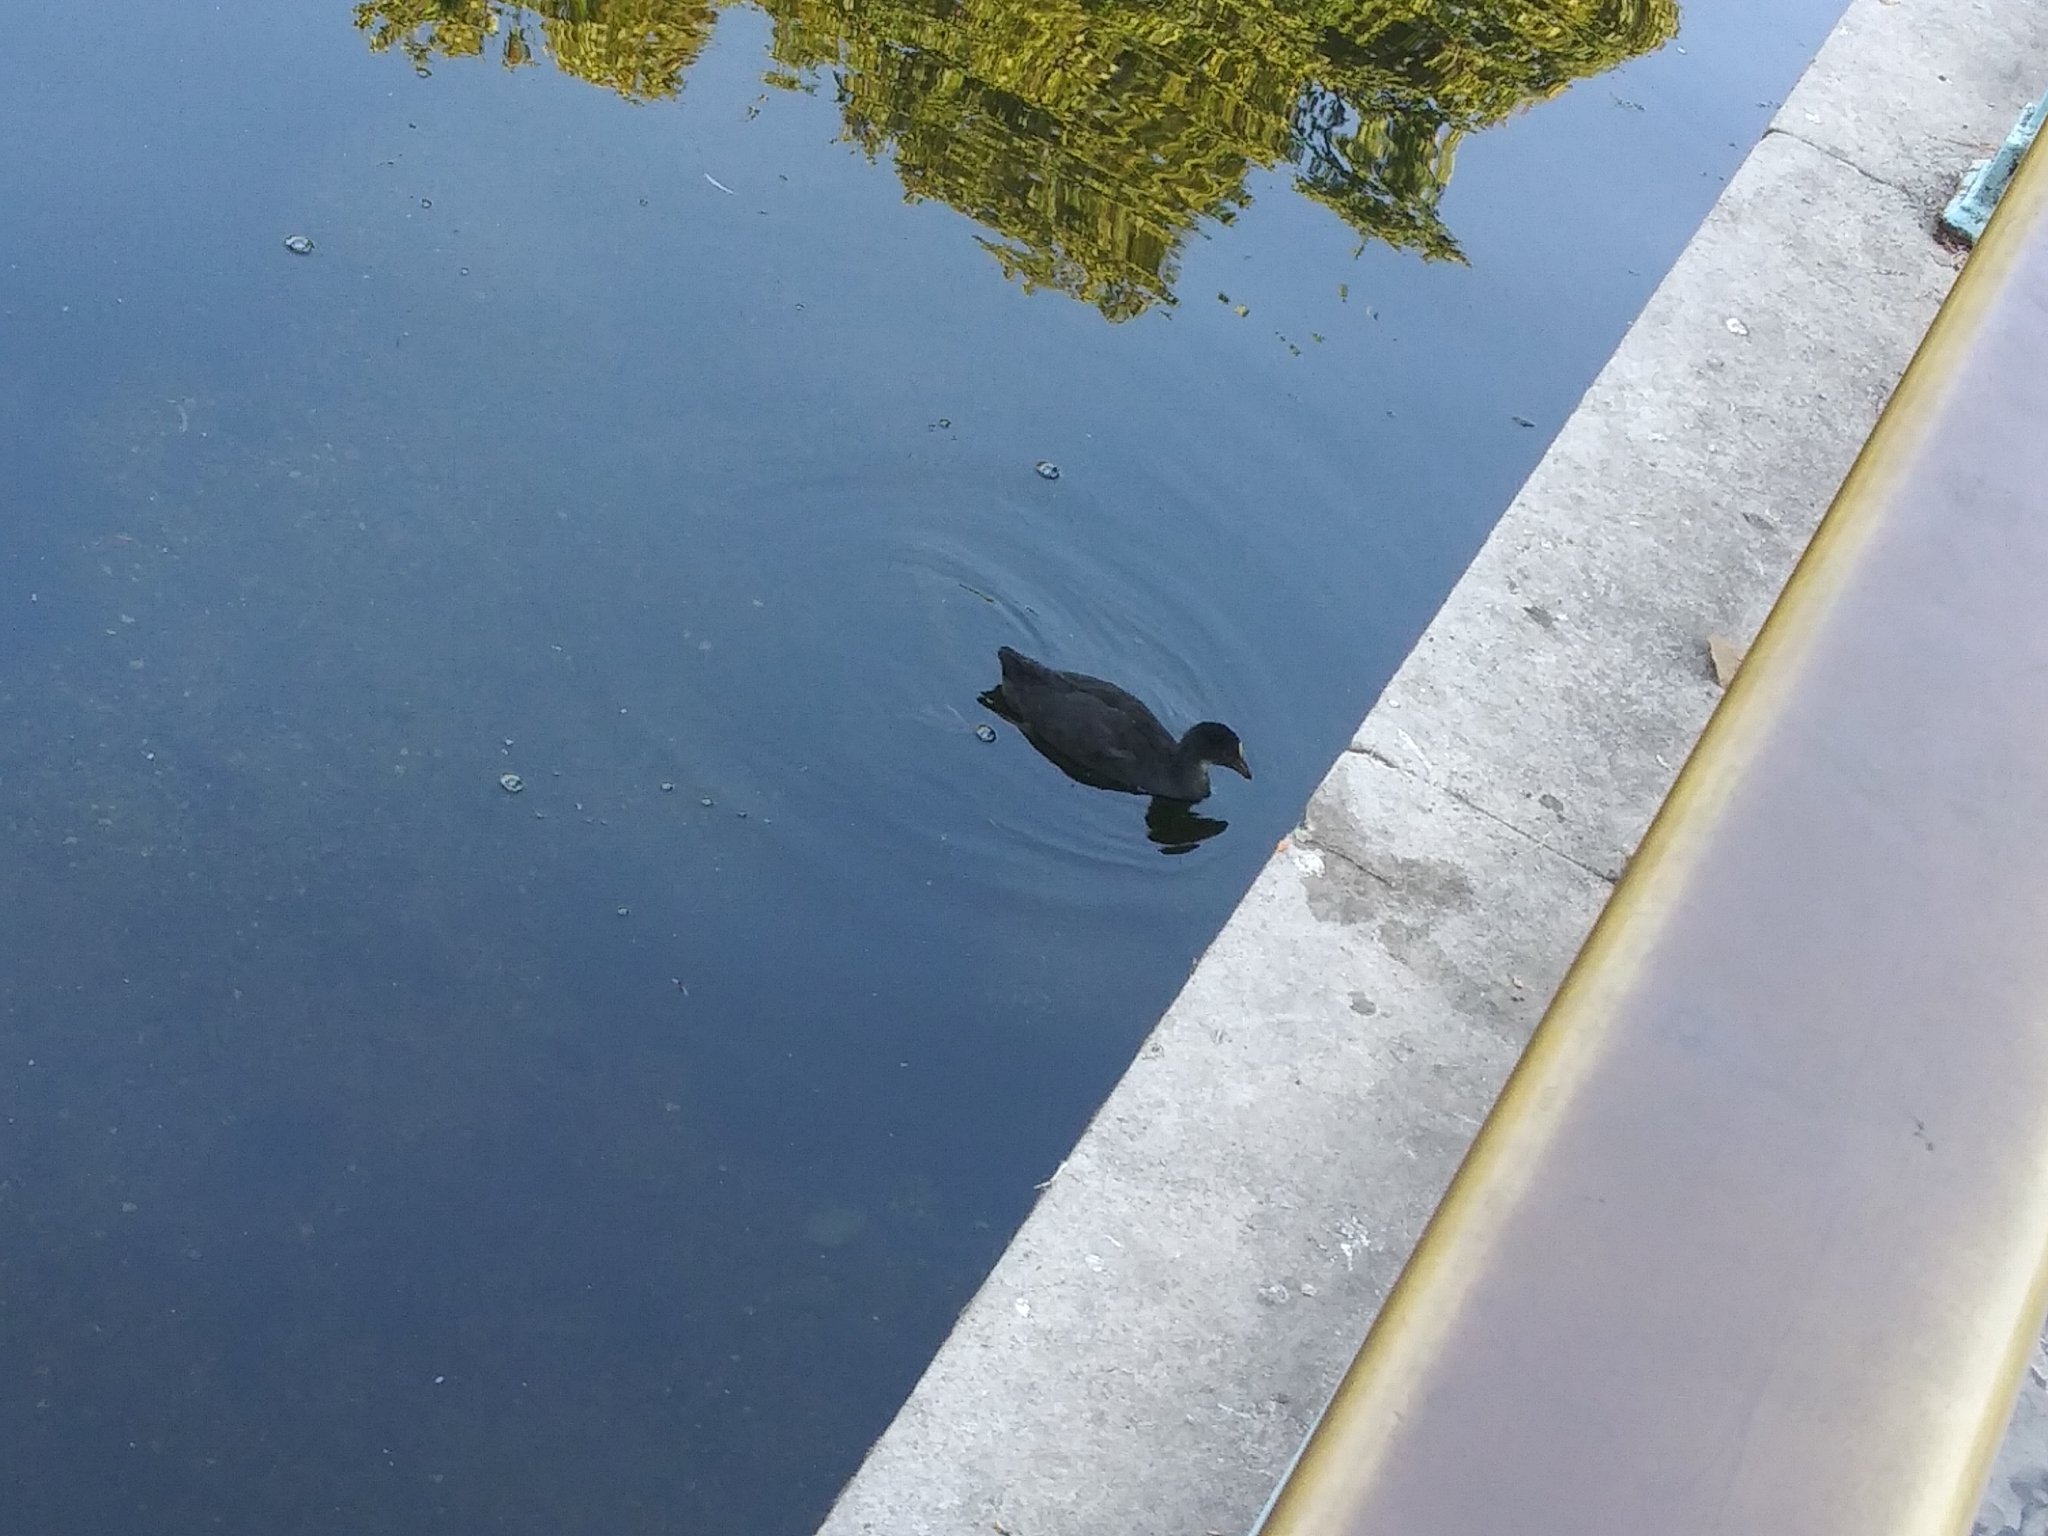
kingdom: Animalia
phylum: Chordata
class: Aves
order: Gruiformes
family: Rallidae
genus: Fulica
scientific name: Fulica atra
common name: Eurasian coot
